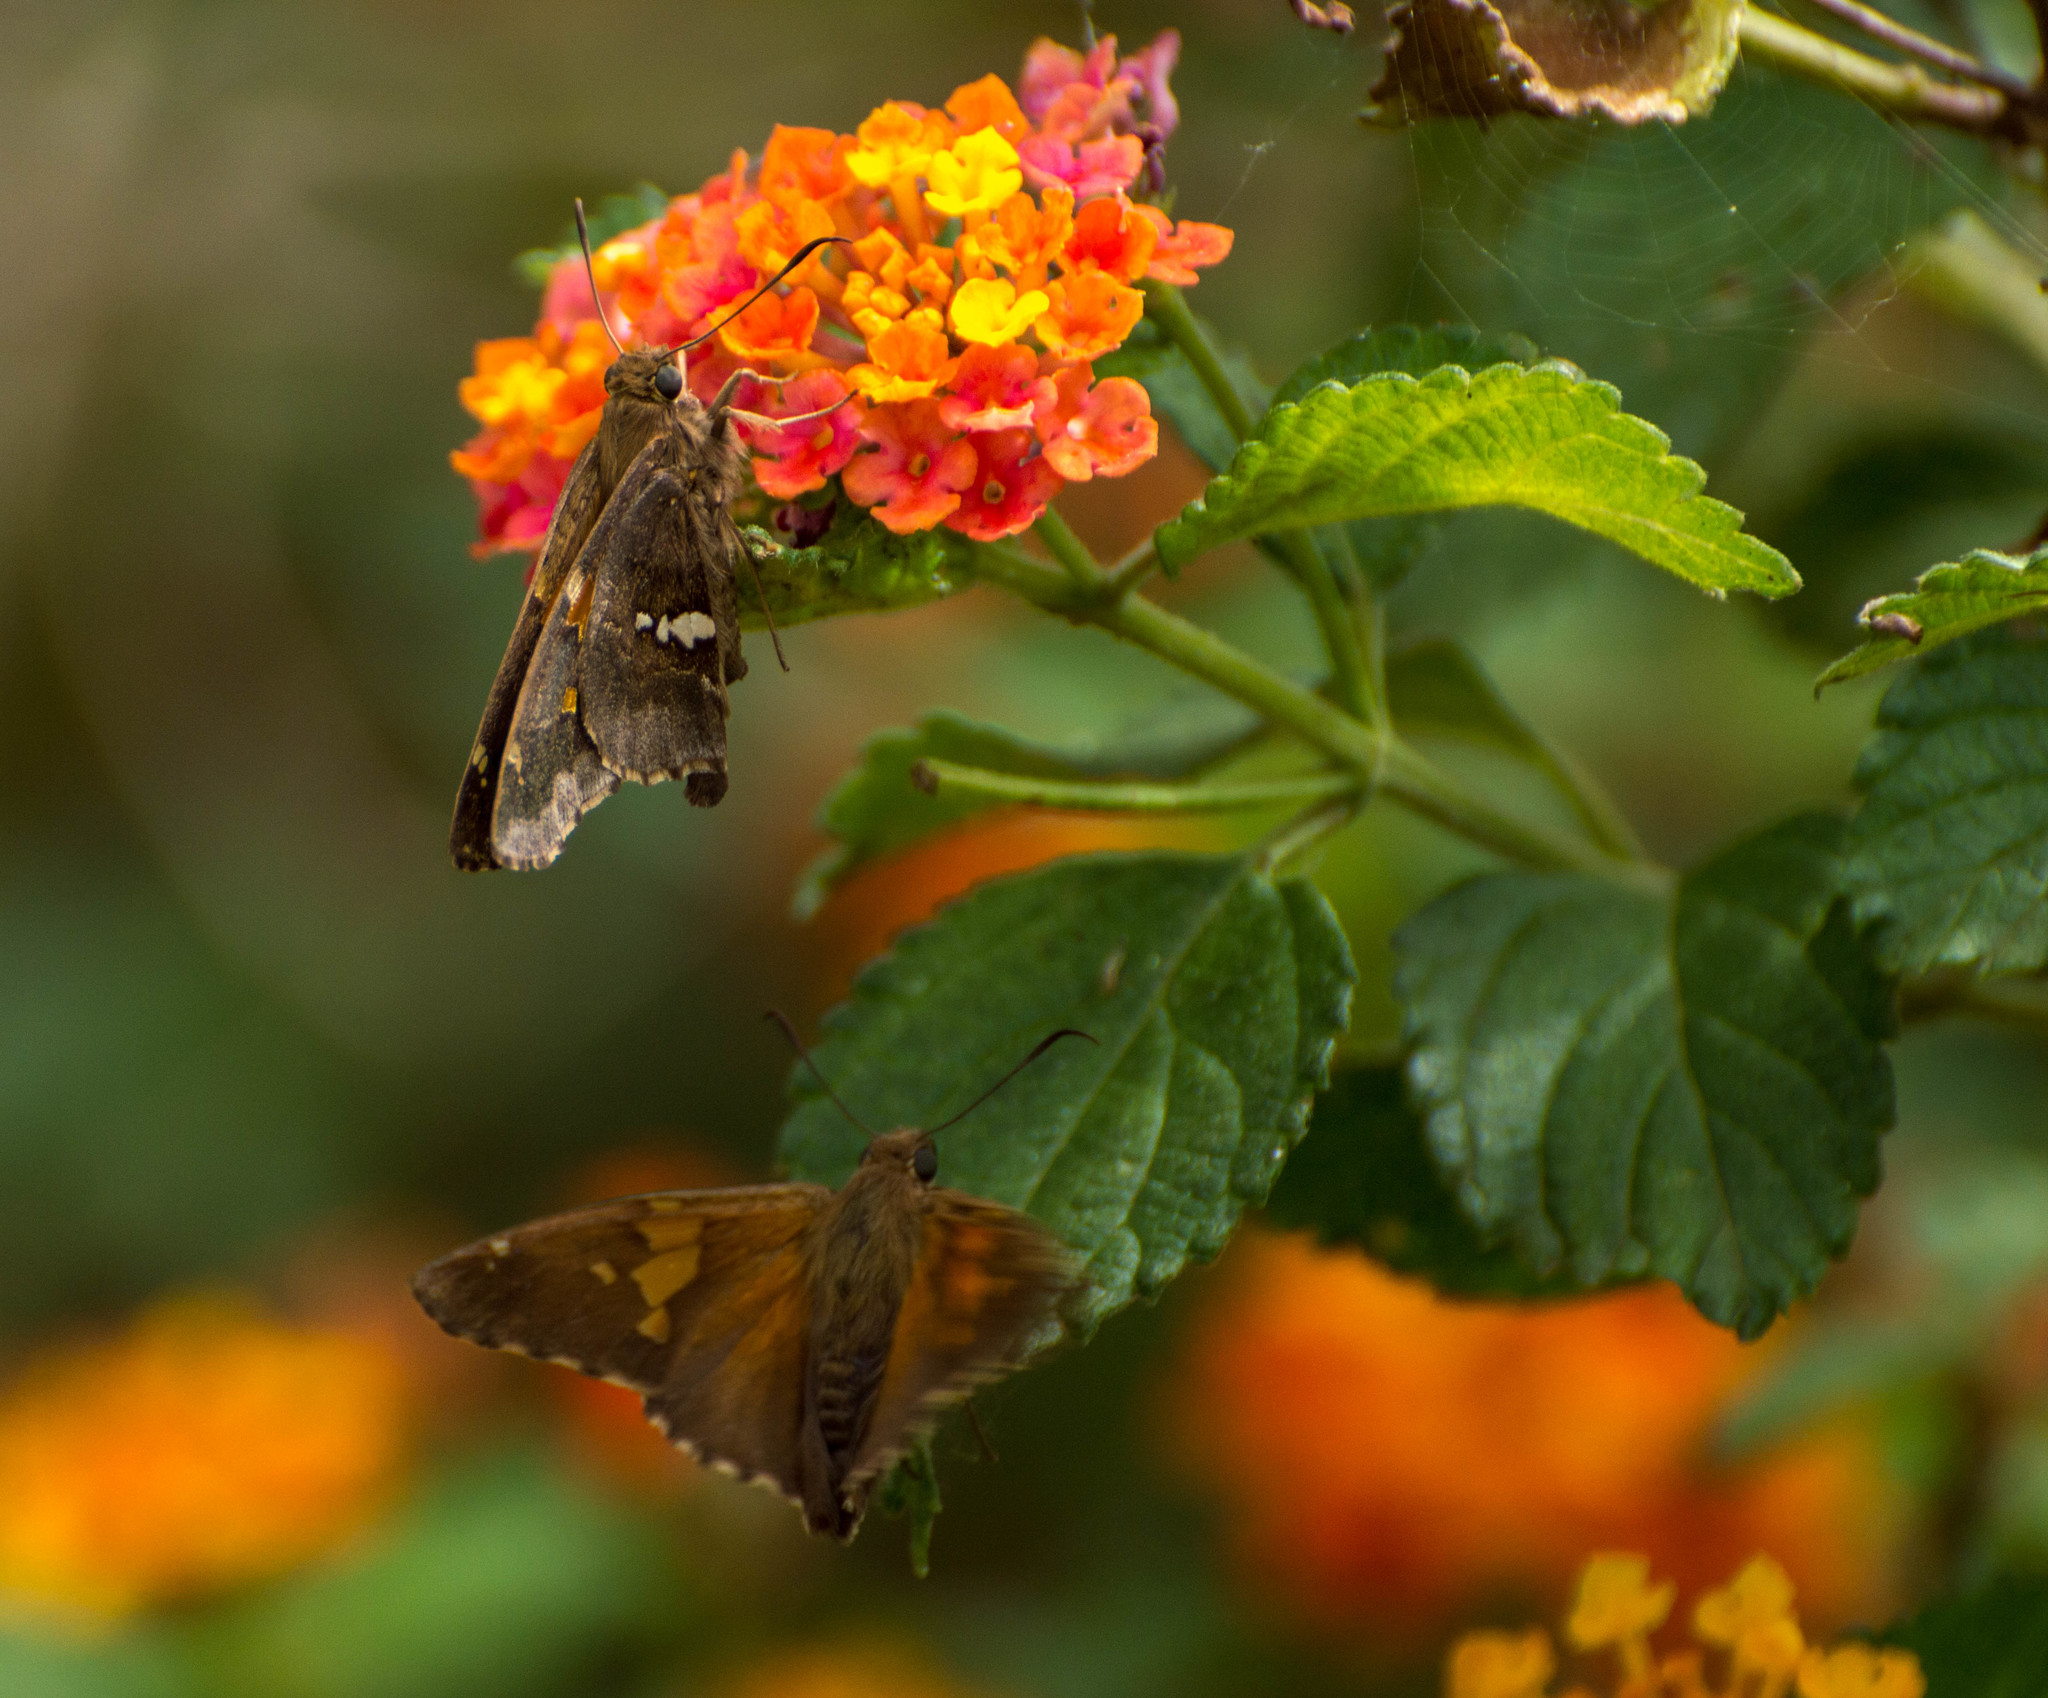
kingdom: Animalia
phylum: Arthropoda
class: Insecta
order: Lepidoptera
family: Hesperiidae
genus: Epargyreus
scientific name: Epargyreus tmolis
